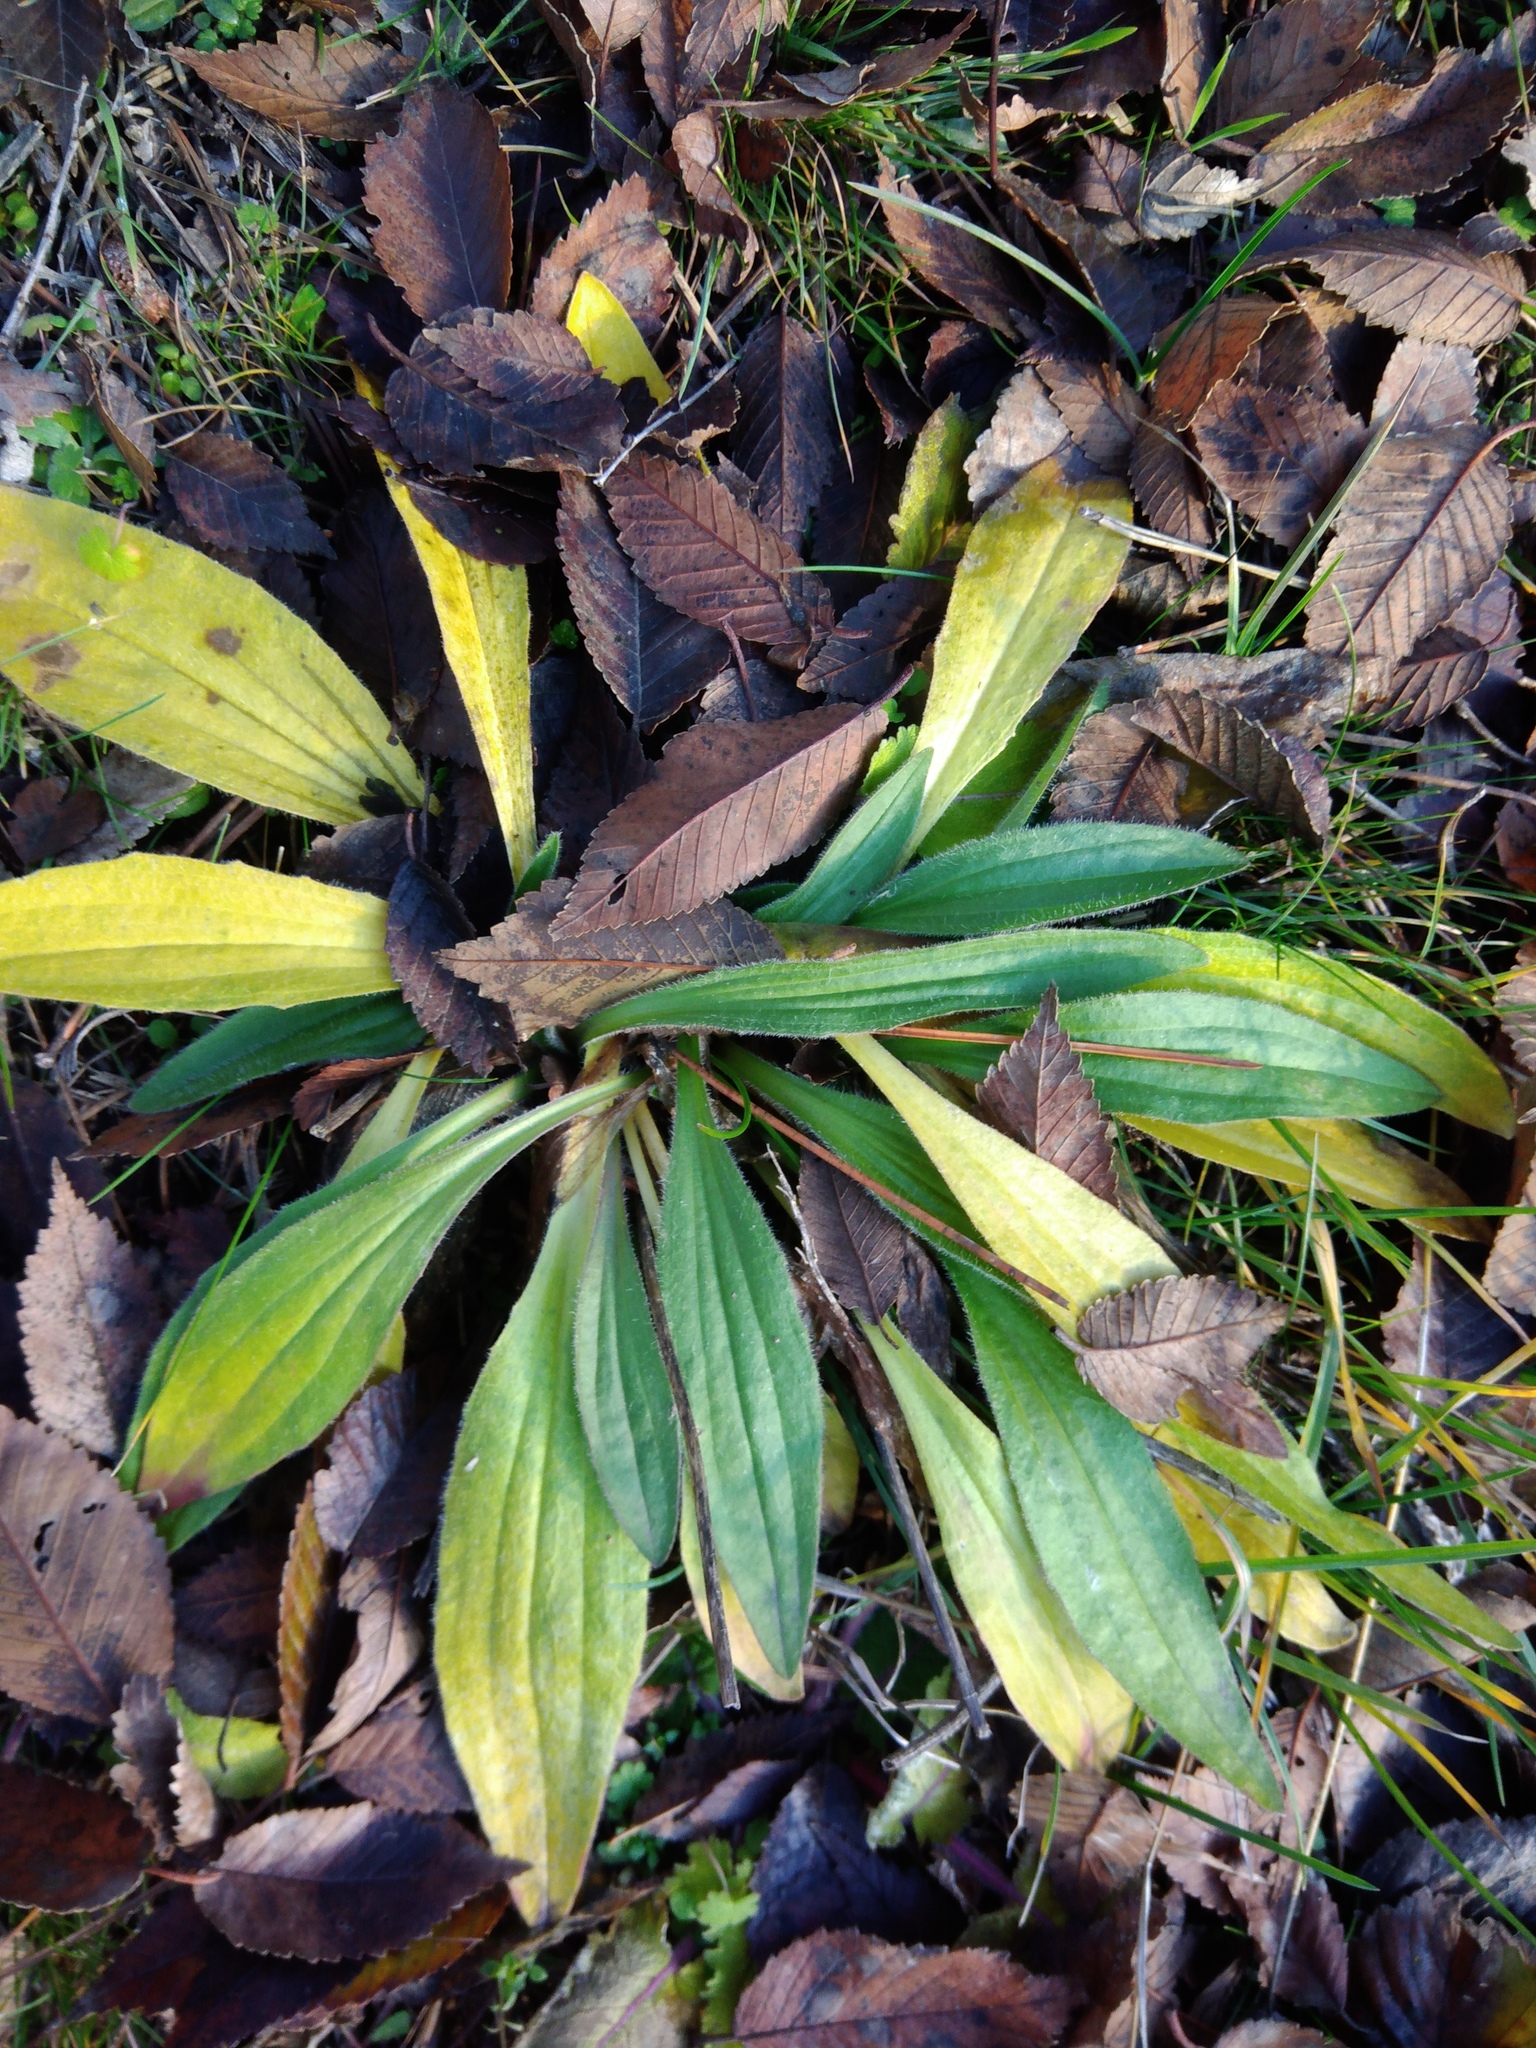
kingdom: Plantae
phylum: Tracheophyta
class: Magnoliopsida
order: Lamiales
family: Plantaginaceae
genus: Plantago
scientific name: Plantago lanceolata
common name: Ribwort plantain
